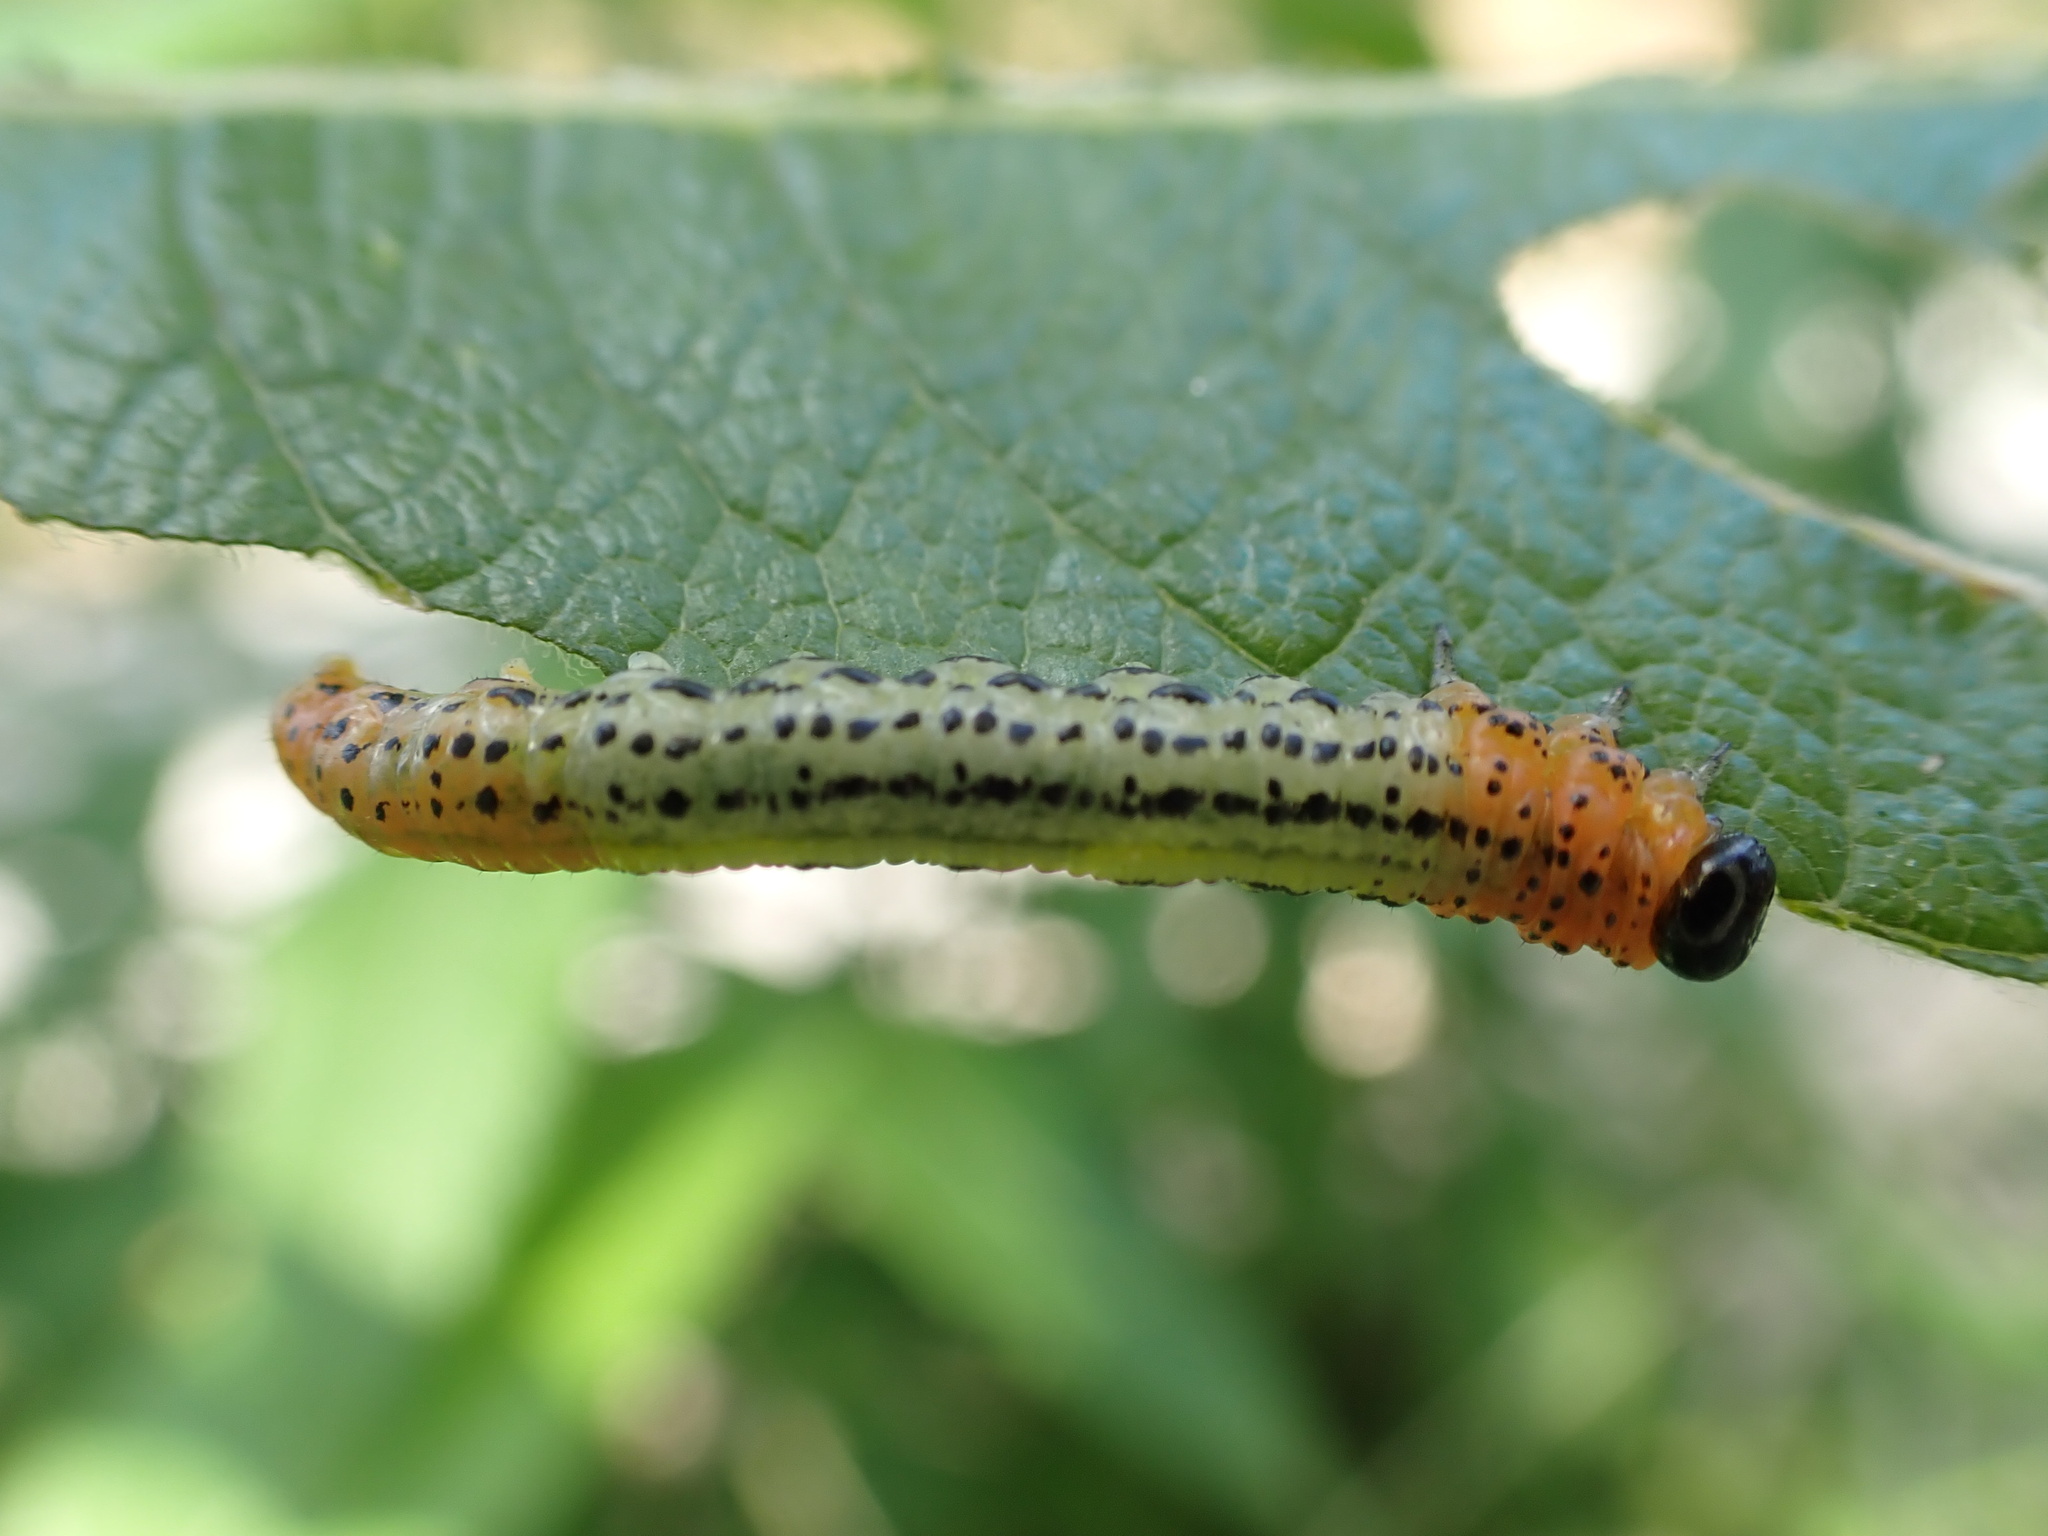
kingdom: Animalia
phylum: Arthropoda
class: Insecta
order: Hymenoptera
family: Tenthredinidae
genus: Nematus
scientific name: Nematus miliaris
